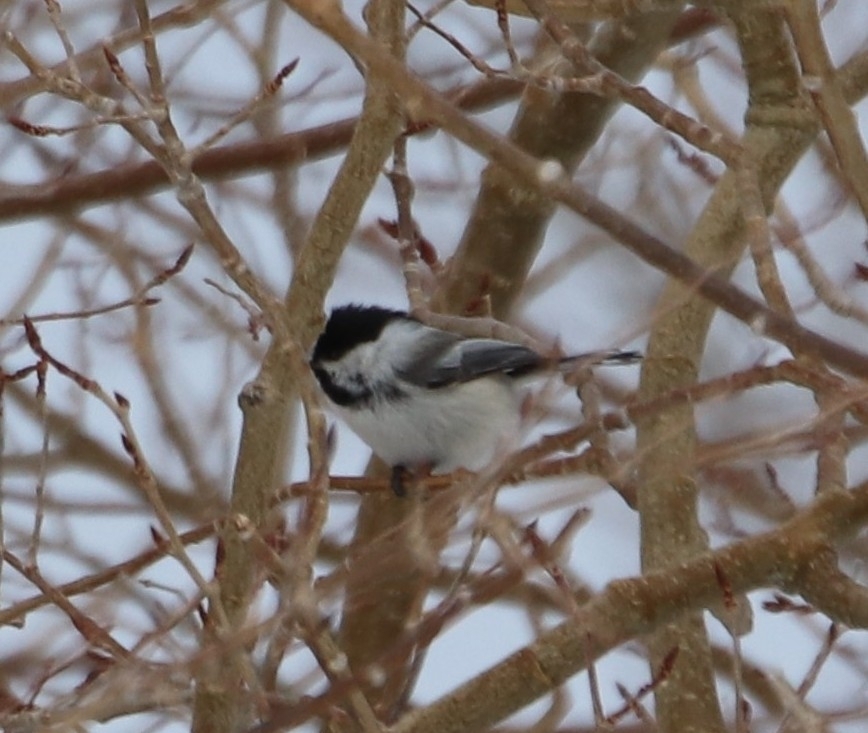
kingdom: Animalia
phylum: Chordata
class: Aves
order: Passeriformes
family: Paridae
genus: Poecile
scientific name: Poecile atricapillus
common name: Black-capped chickadee
